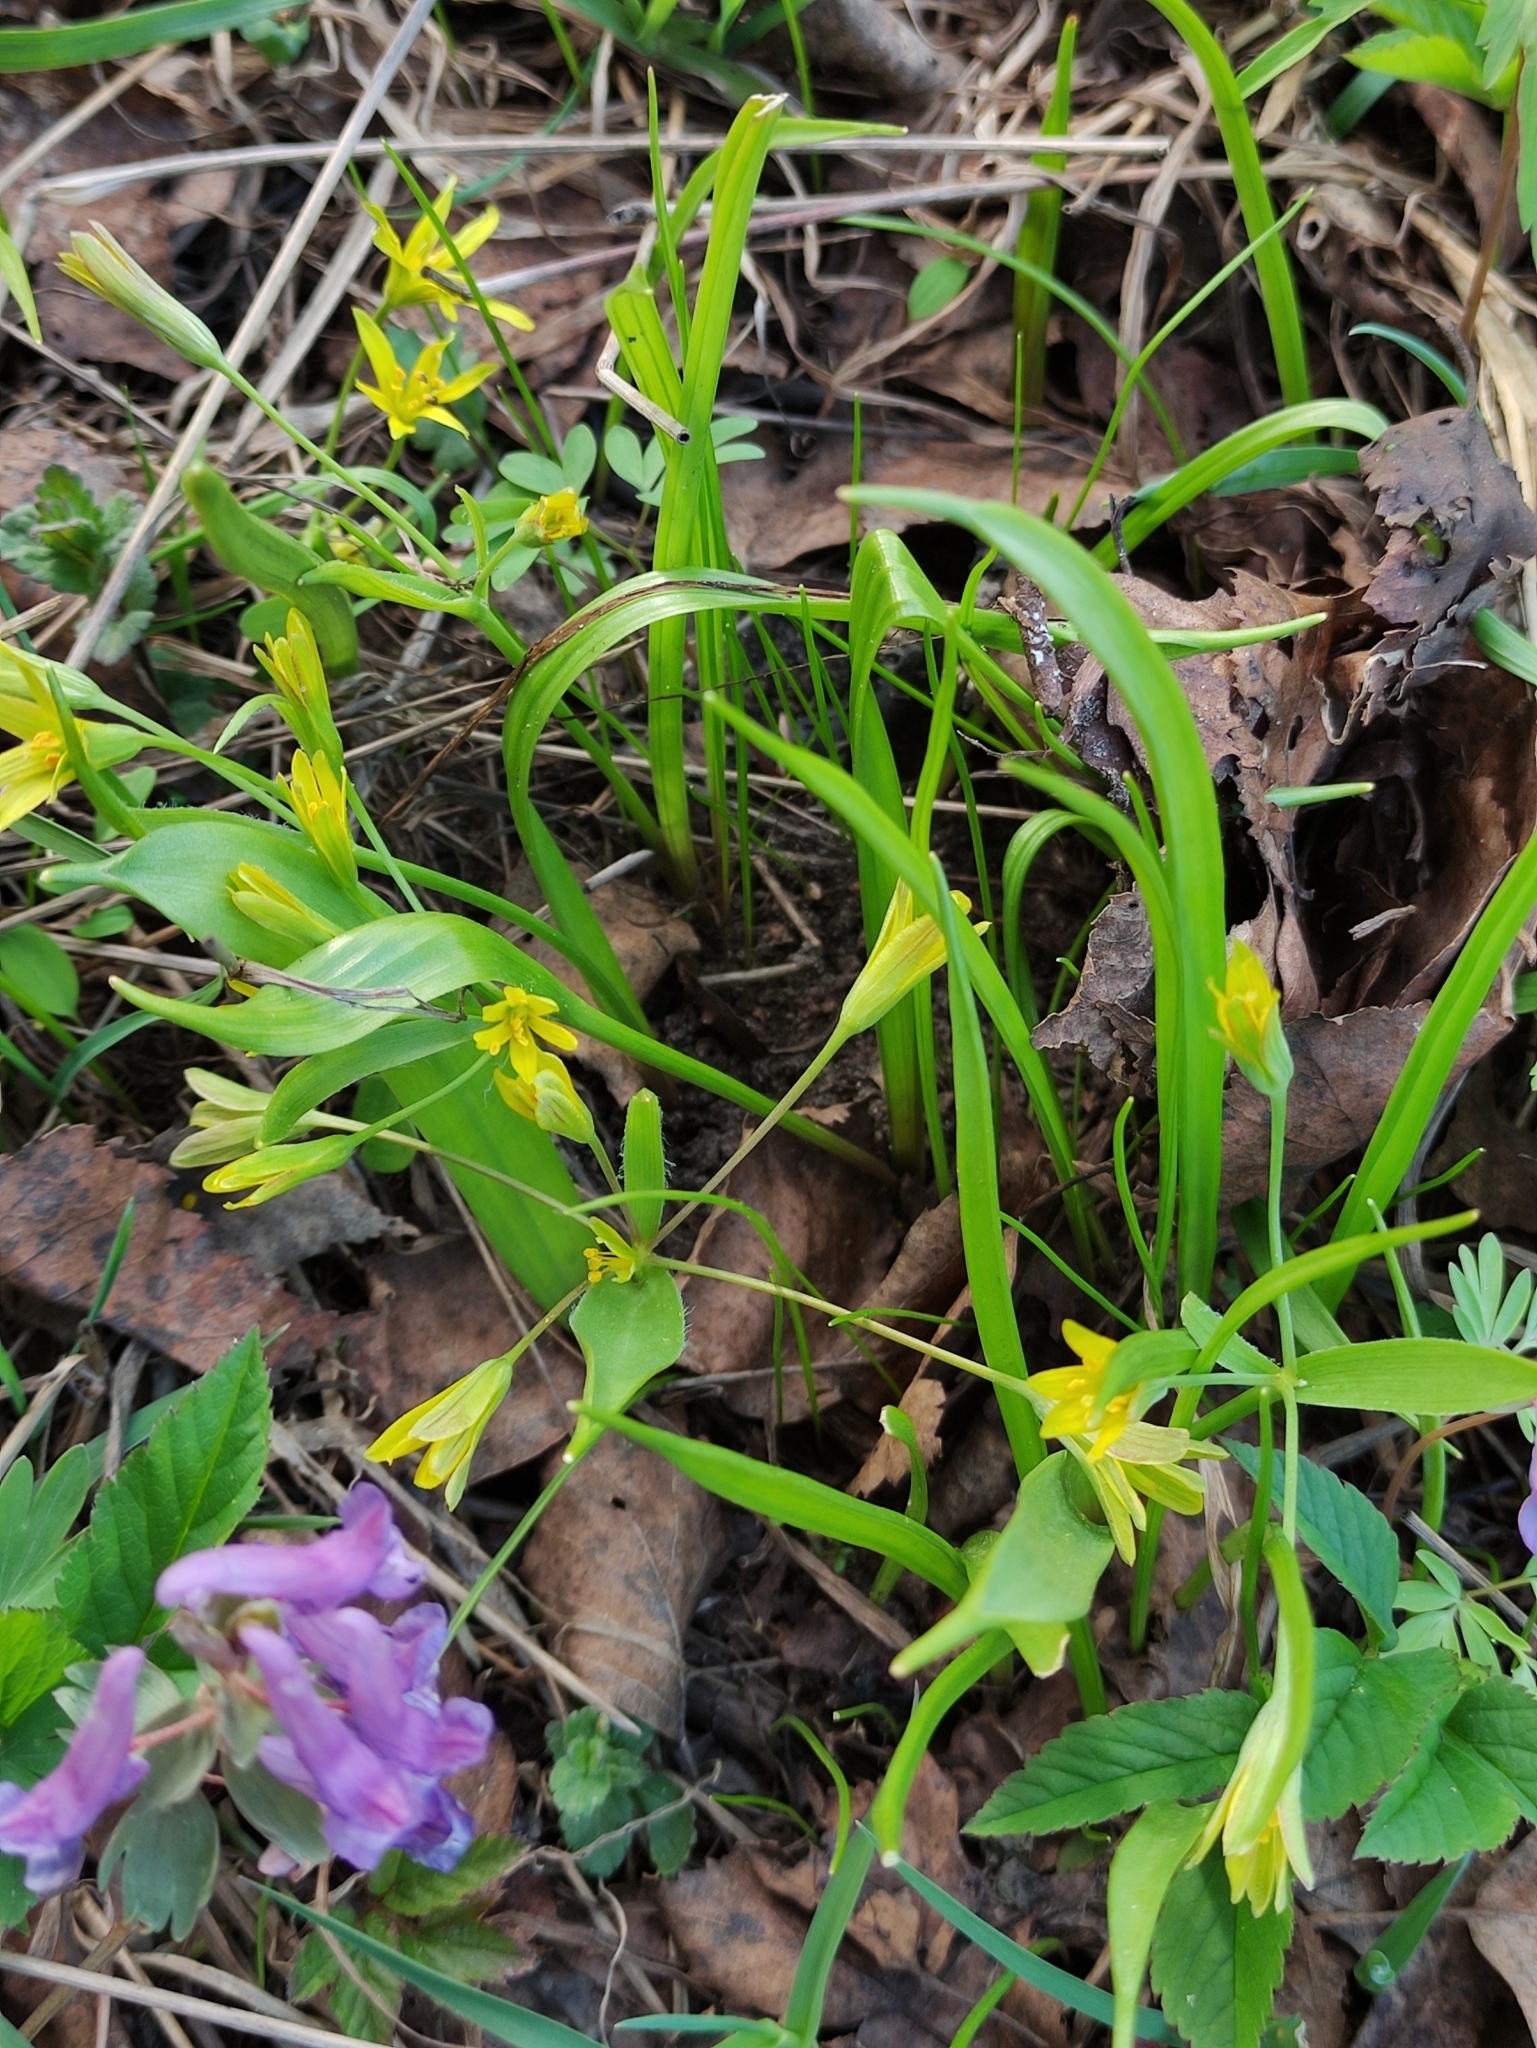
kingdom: Plantae
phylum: Tracheophyta
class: Liliopsida
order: Liliales
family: Liliaceae
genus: Gagea
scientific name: Gagea lutea
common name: Yellow star-of-bethlehem
